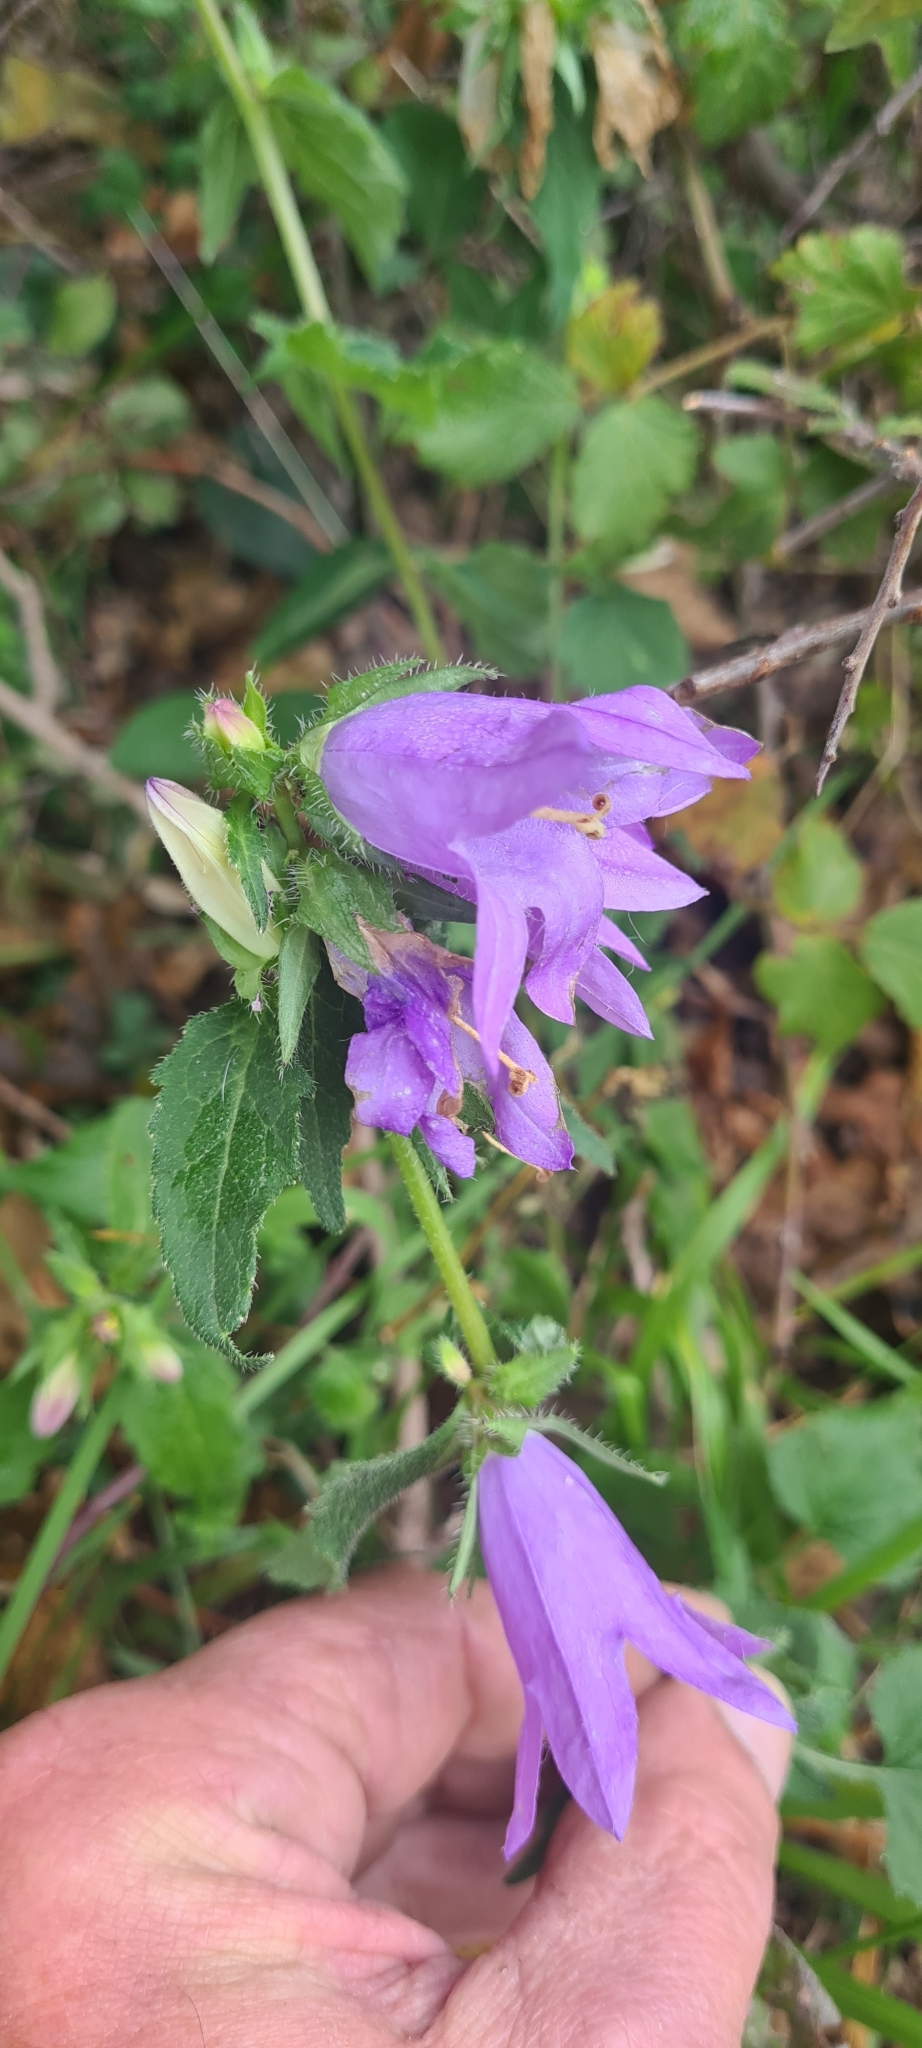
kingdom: Plantae
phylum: Tracheophyta
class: Magnoliopsida
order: Asterales
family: Campanulaceae
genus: Campanula
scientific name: Campanula trachelium
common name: Nettle-leaved bellflower
